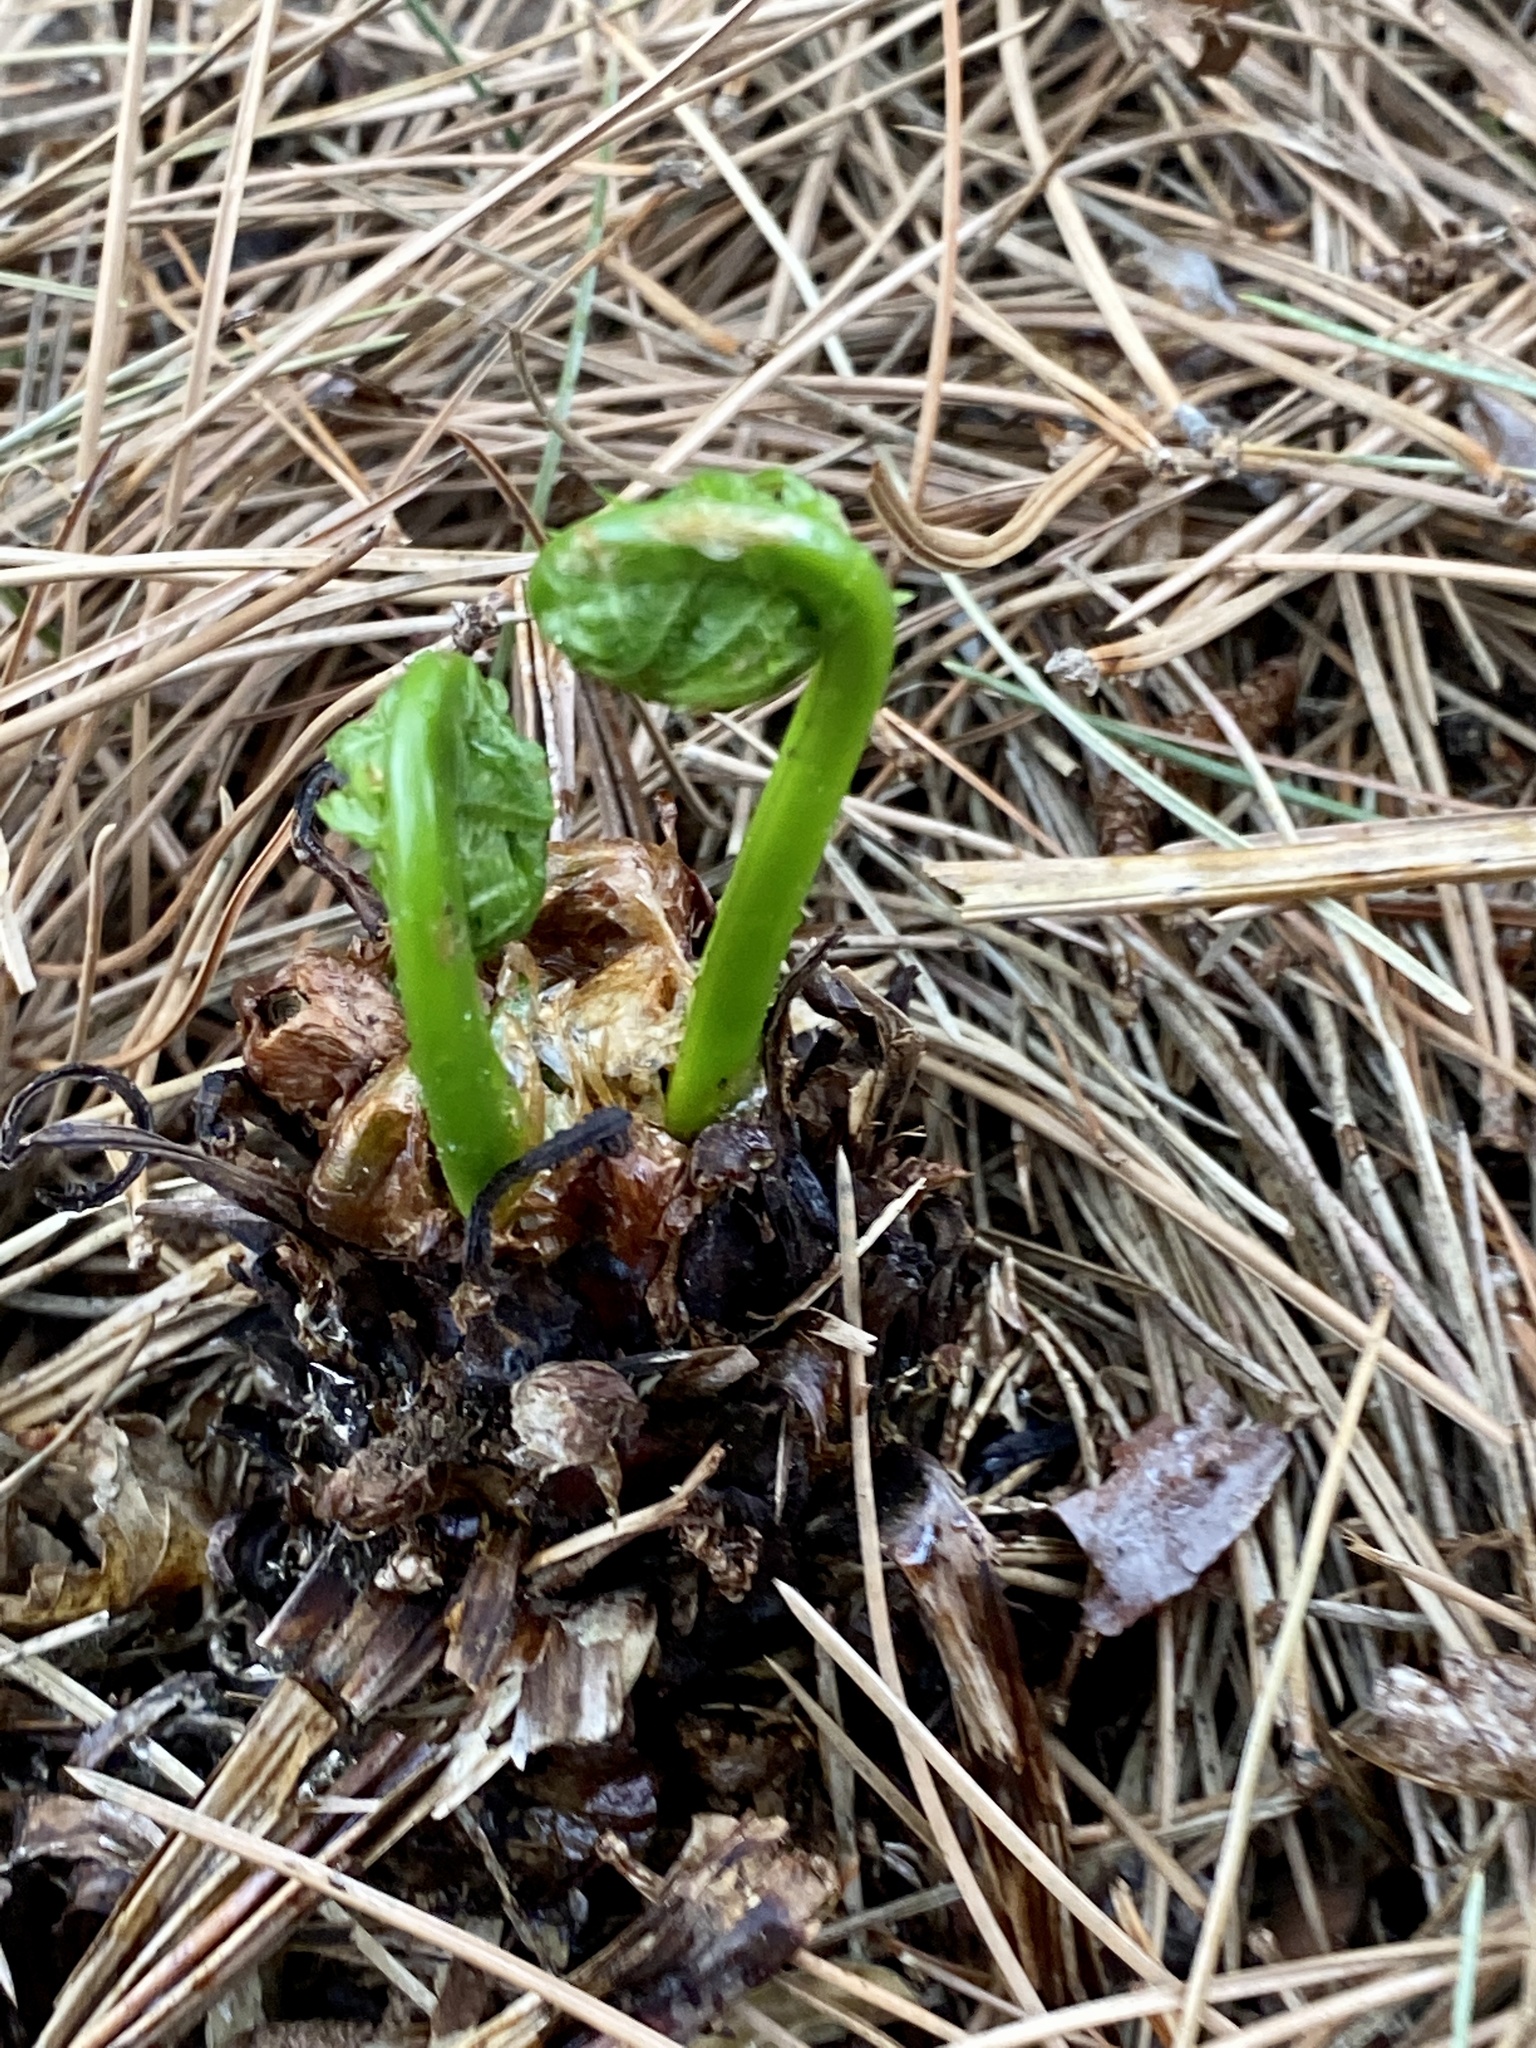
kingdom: Plantae
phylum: Tracheophyta
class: Polypodiopsida
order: Polypodiales
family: Onocleaceae
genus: Matteuccia
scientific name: Matteuccia struthiopteris
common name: Ostrich fern
